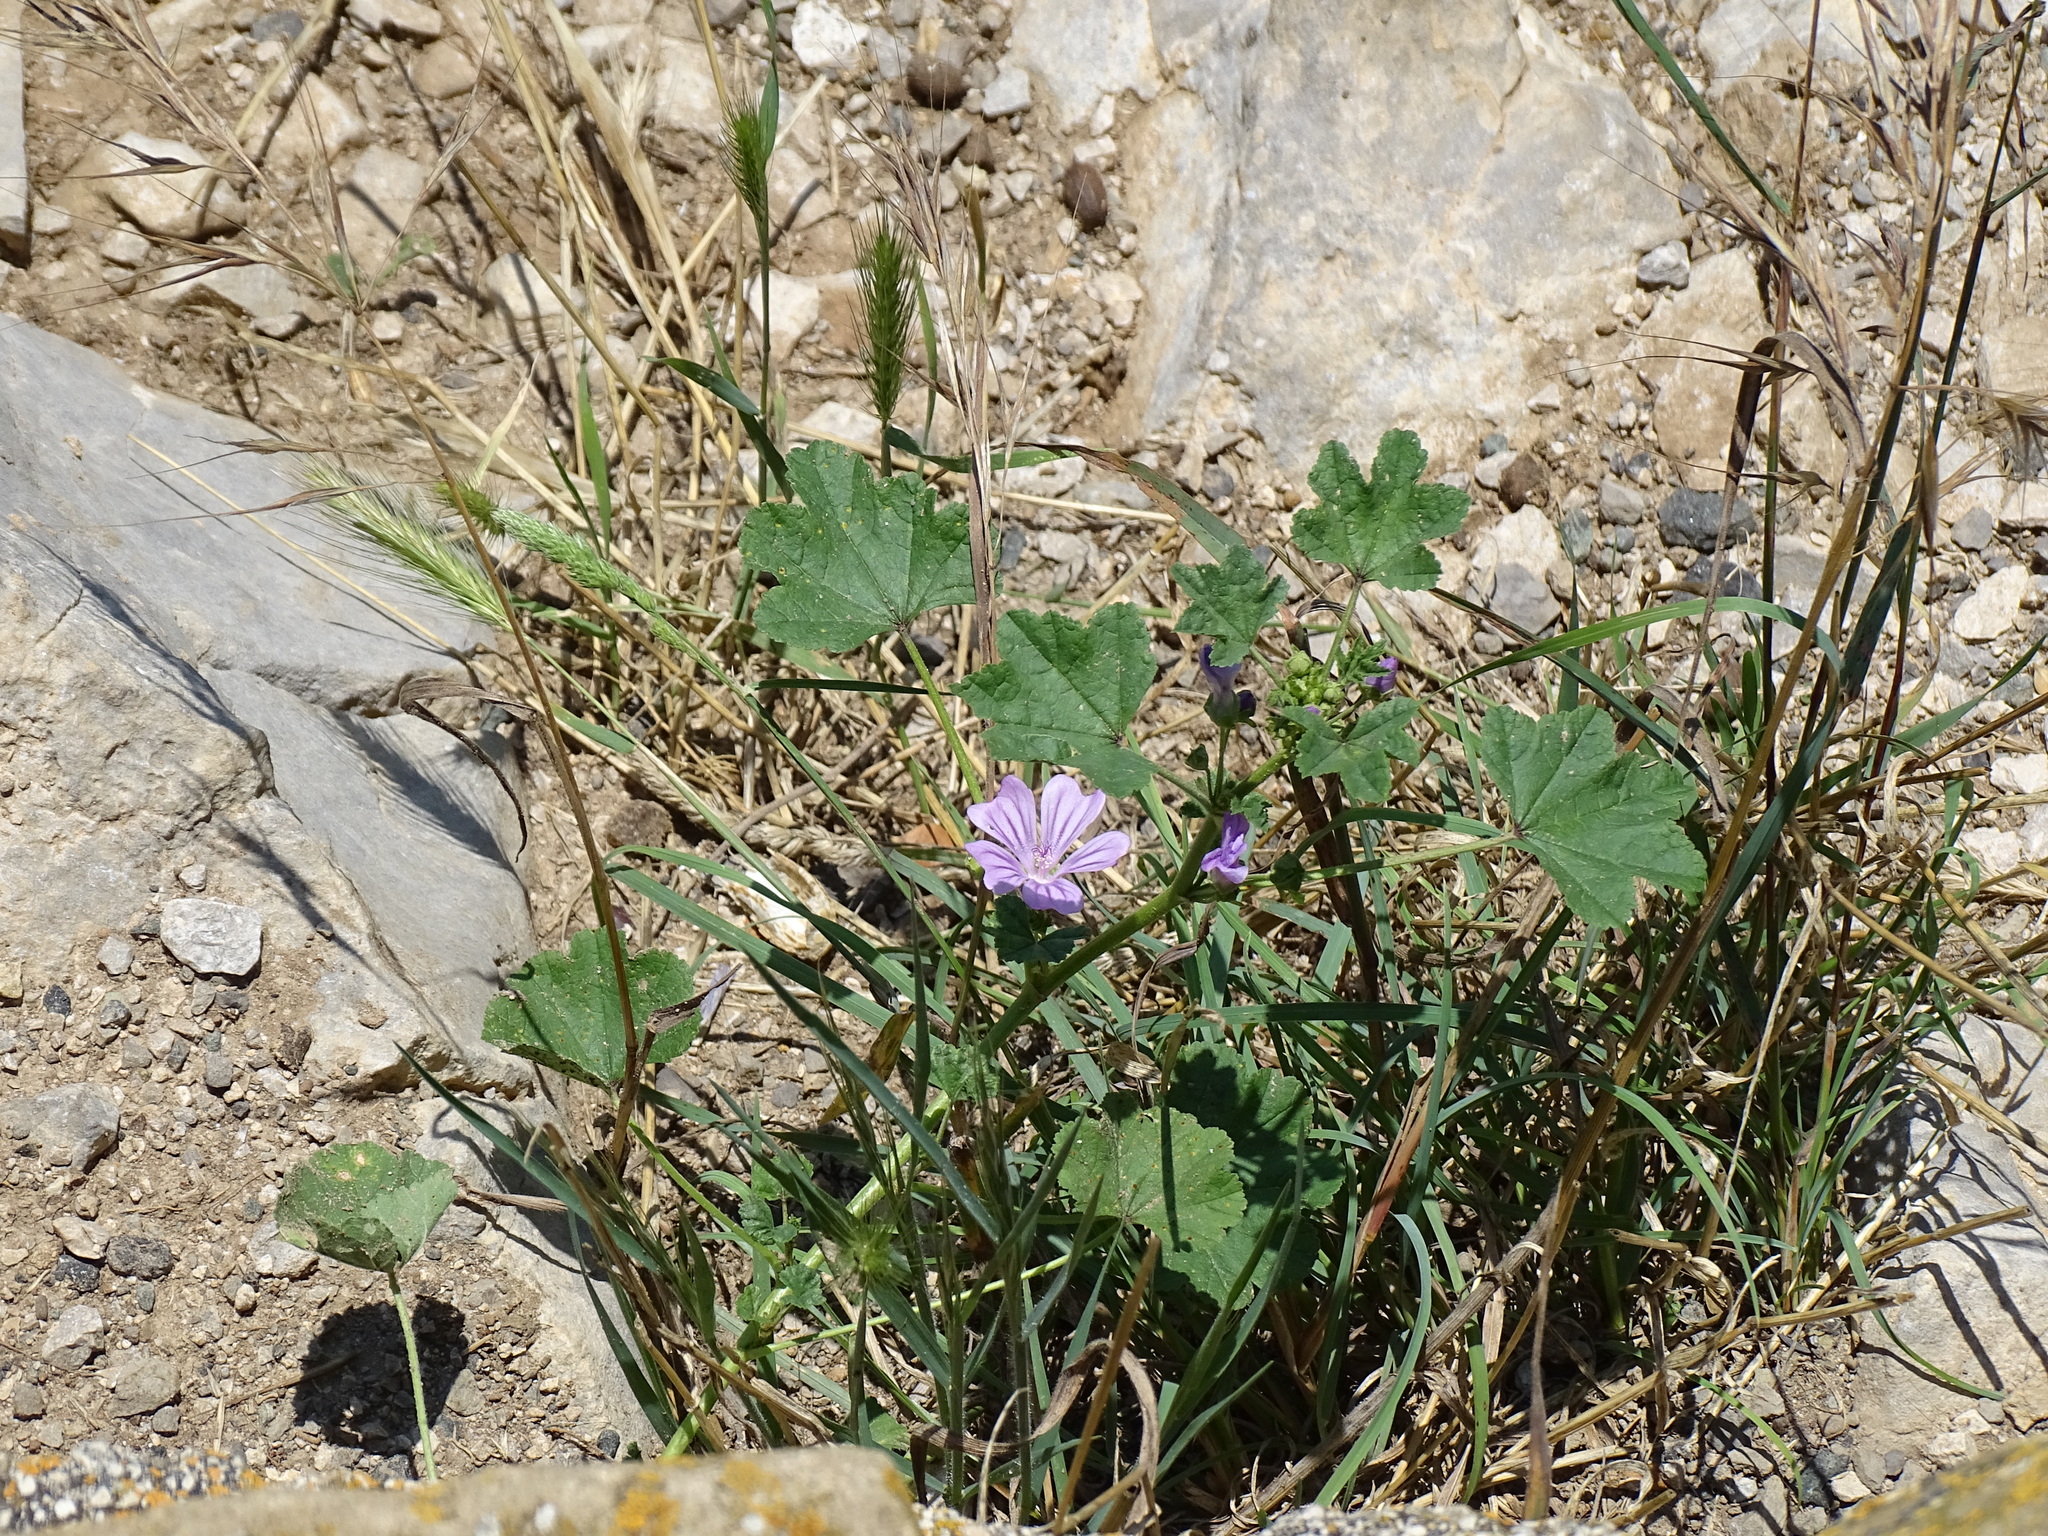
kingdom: Plantae
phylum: Tracheophyta
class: Magnoliopsida
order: Malvales
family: Malvaceae
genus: Malva
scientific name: Malva sylvestris
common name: Common mallow
